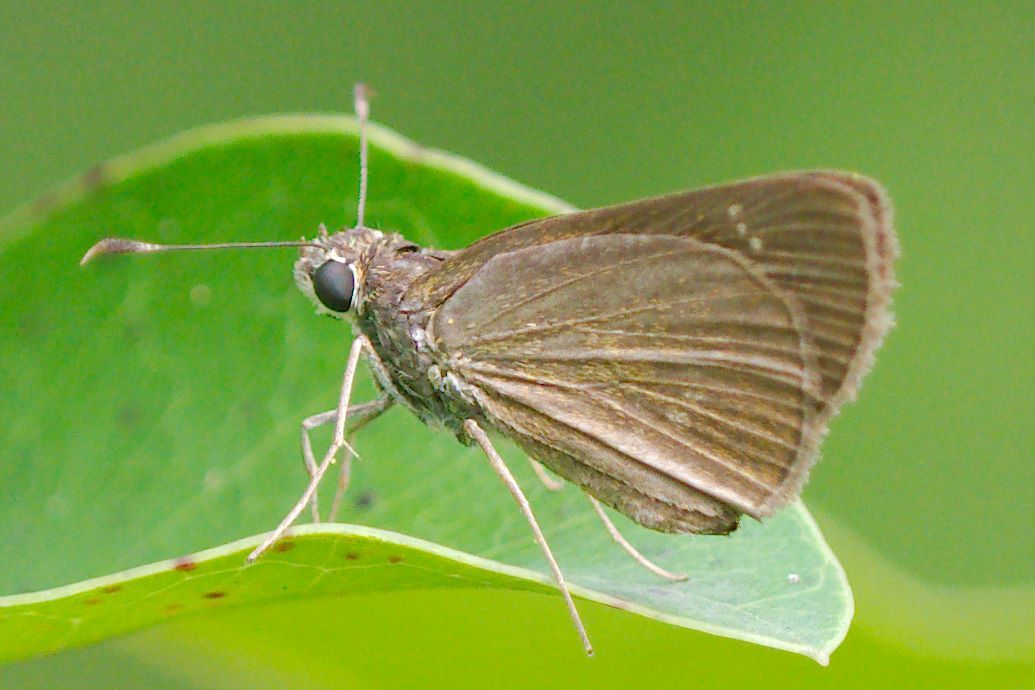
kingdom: Animalia
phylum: Arthropoda
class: Insecta
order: Lepidoptera
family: Hesperiidae
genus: Cymaenes
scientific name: Cymaenes tripunctus
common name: Dingy dotted skipper
